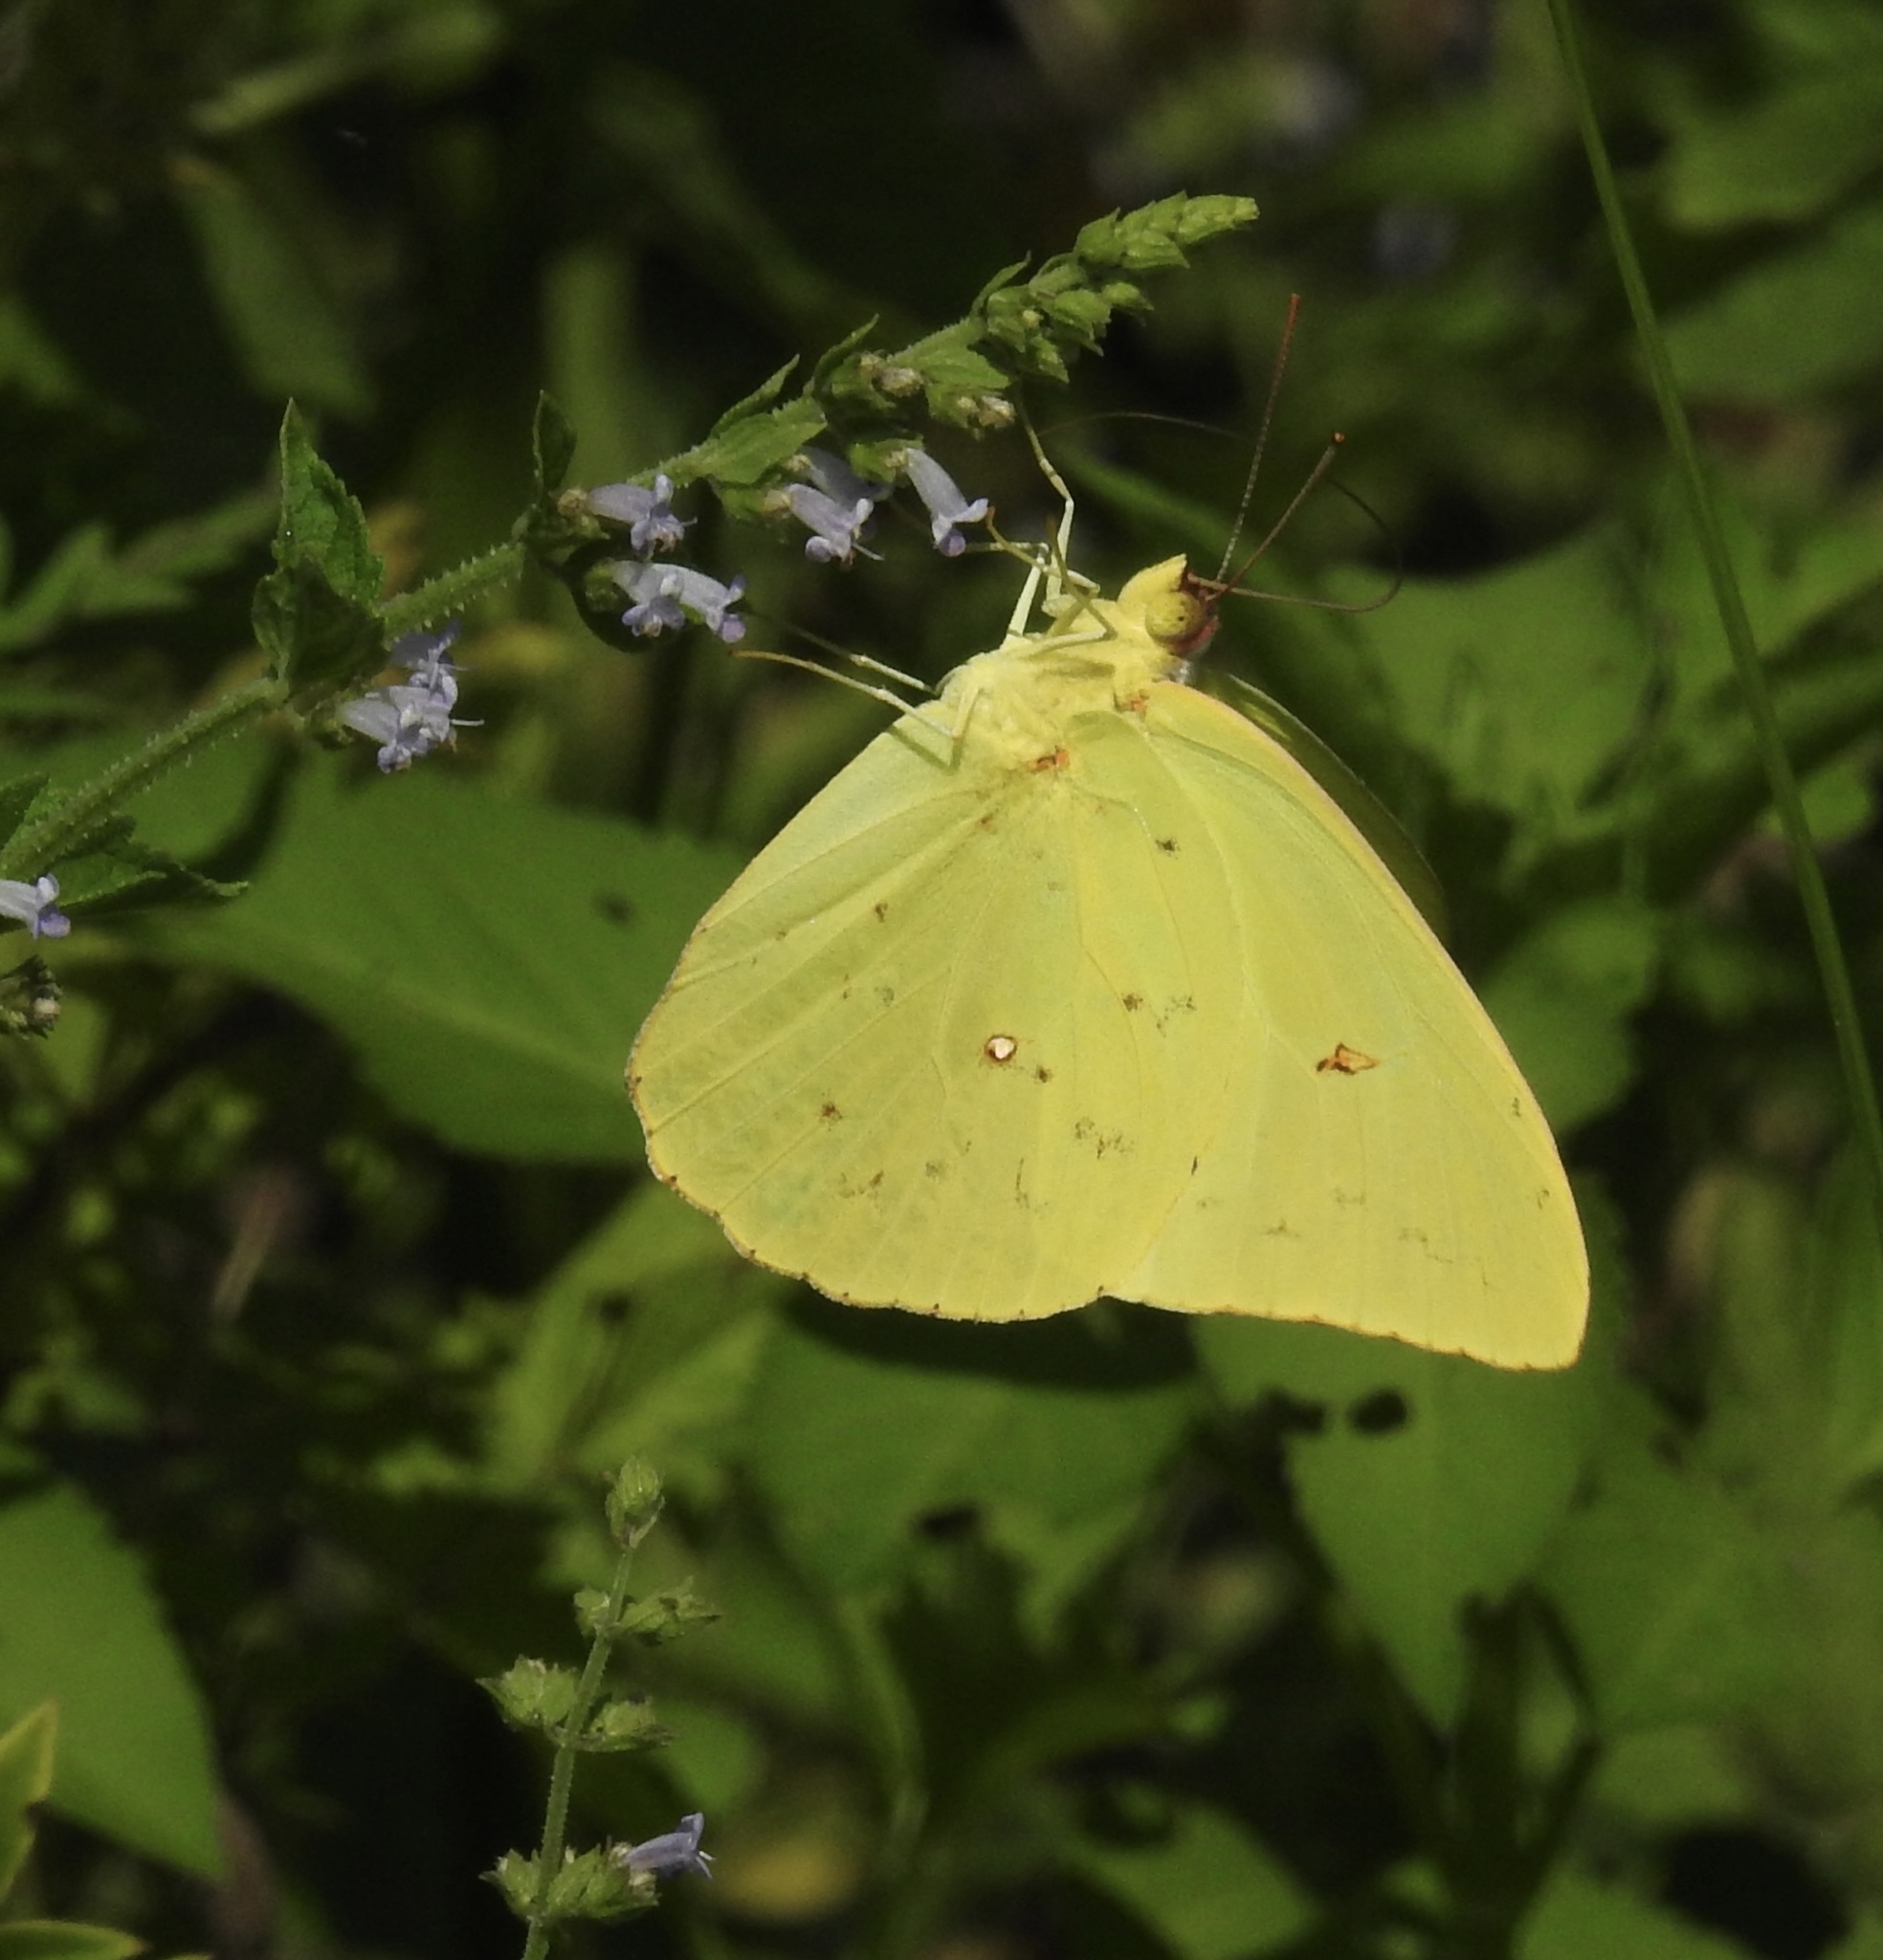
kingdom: Animalia
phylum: Arthropoda
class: Insecta
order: Lepidoptera
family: Pieridae
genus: Phoebis
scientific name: Phoebis sennae
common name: Cloudless sulphur
